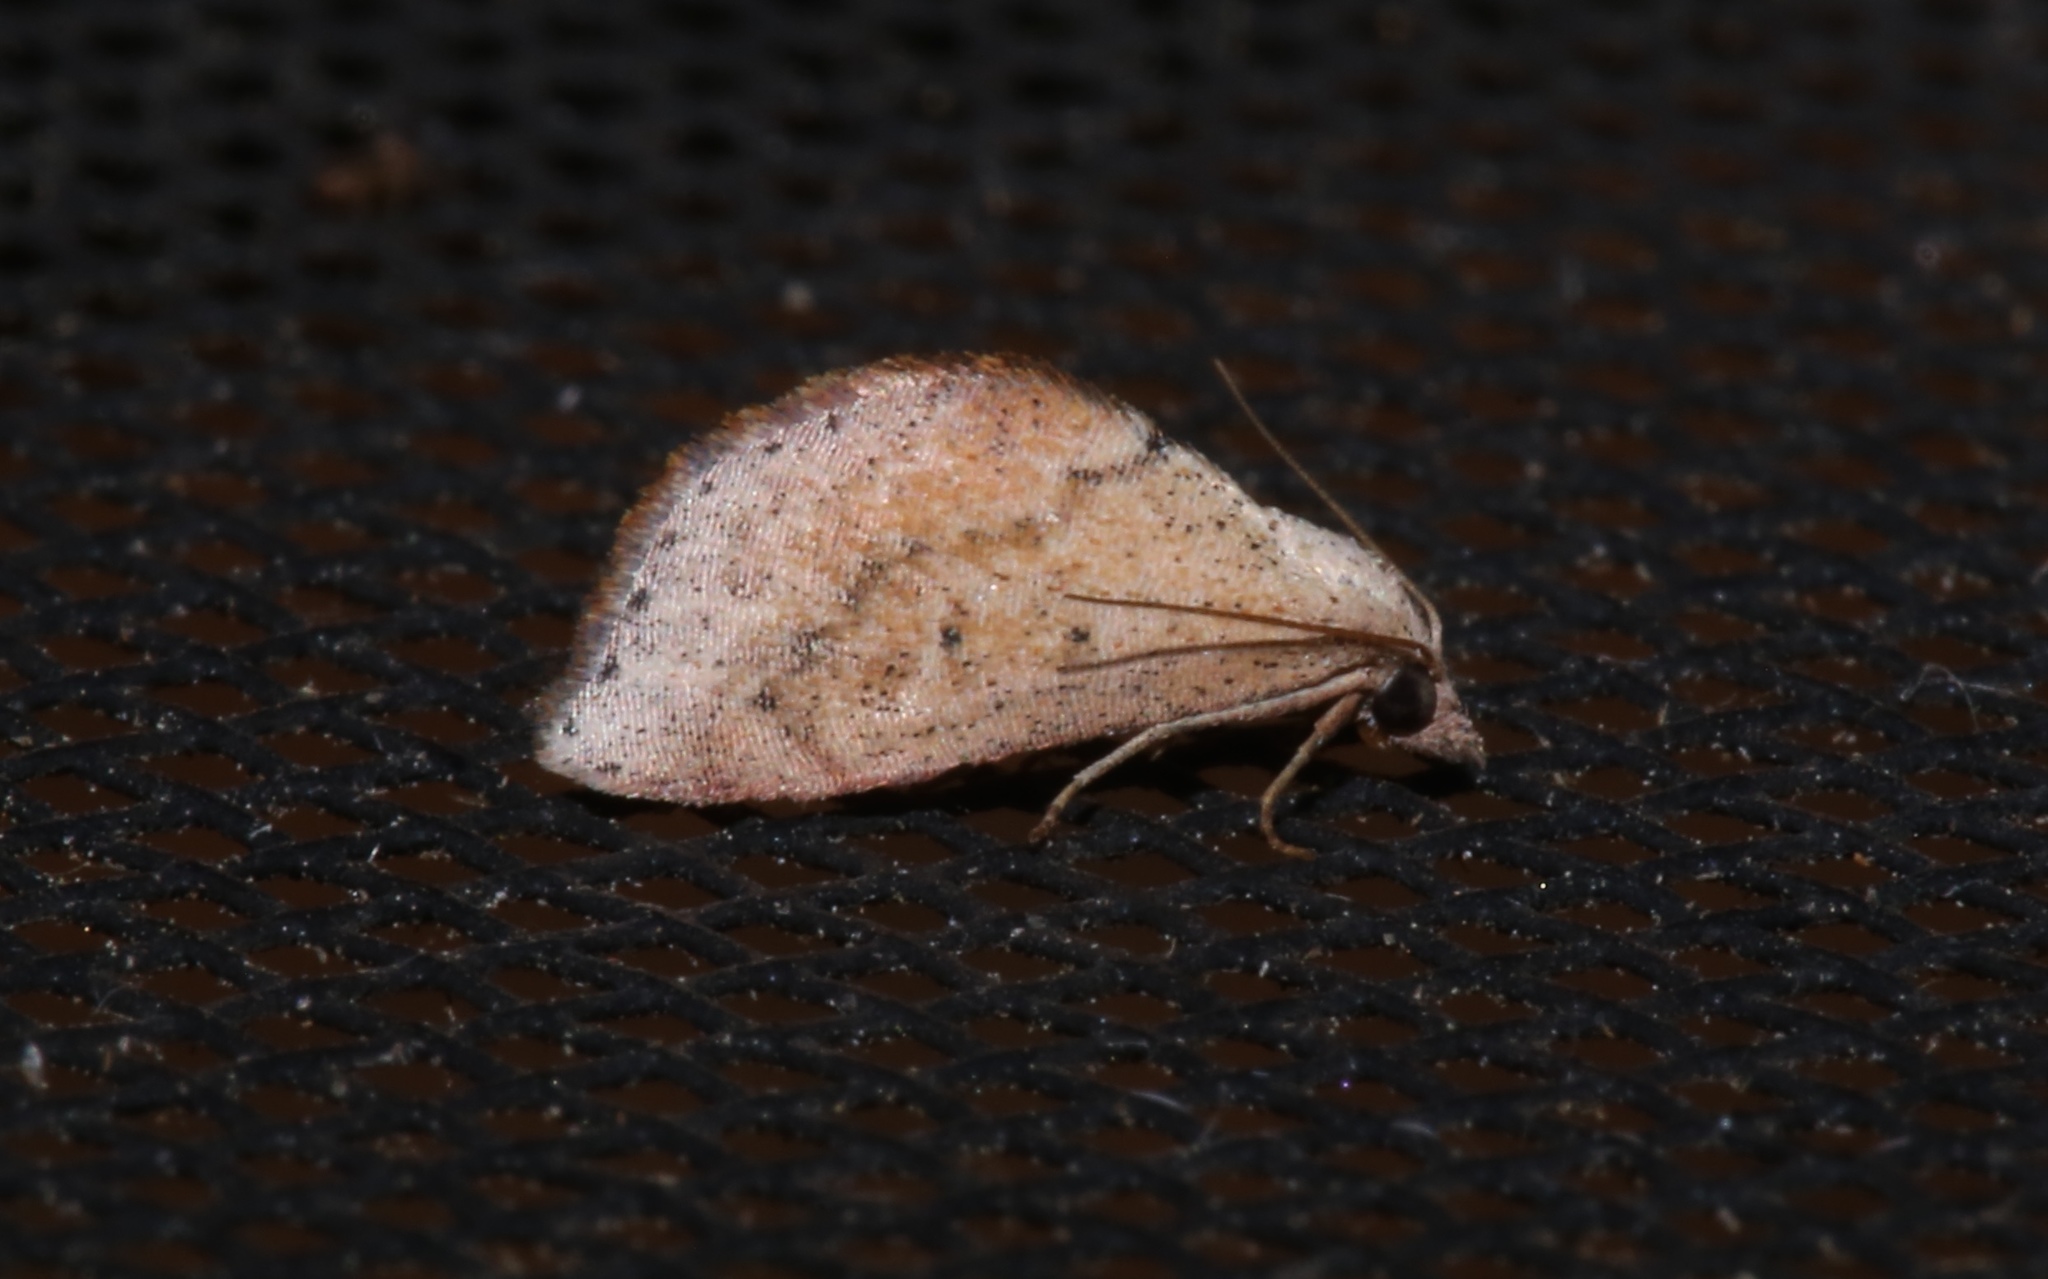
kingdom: Animalia
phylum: Arthropoda
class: Insecta
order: Lepidoptera
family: Noctuidae
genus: Proroblemma
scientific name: Proroblemma testa
